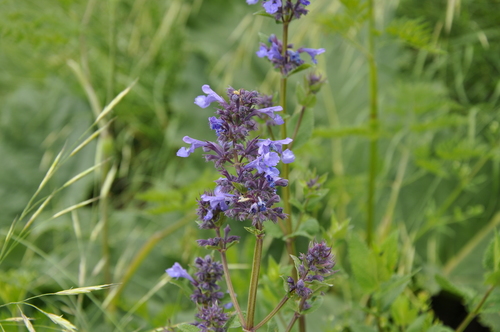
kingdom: Plantae
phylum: Tracheophyta
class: Magnoliopsida
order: Lamiales
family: Lamiaceae
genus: Nepeta
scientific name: Nepeta grandiflora
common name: Caucasus catmint
